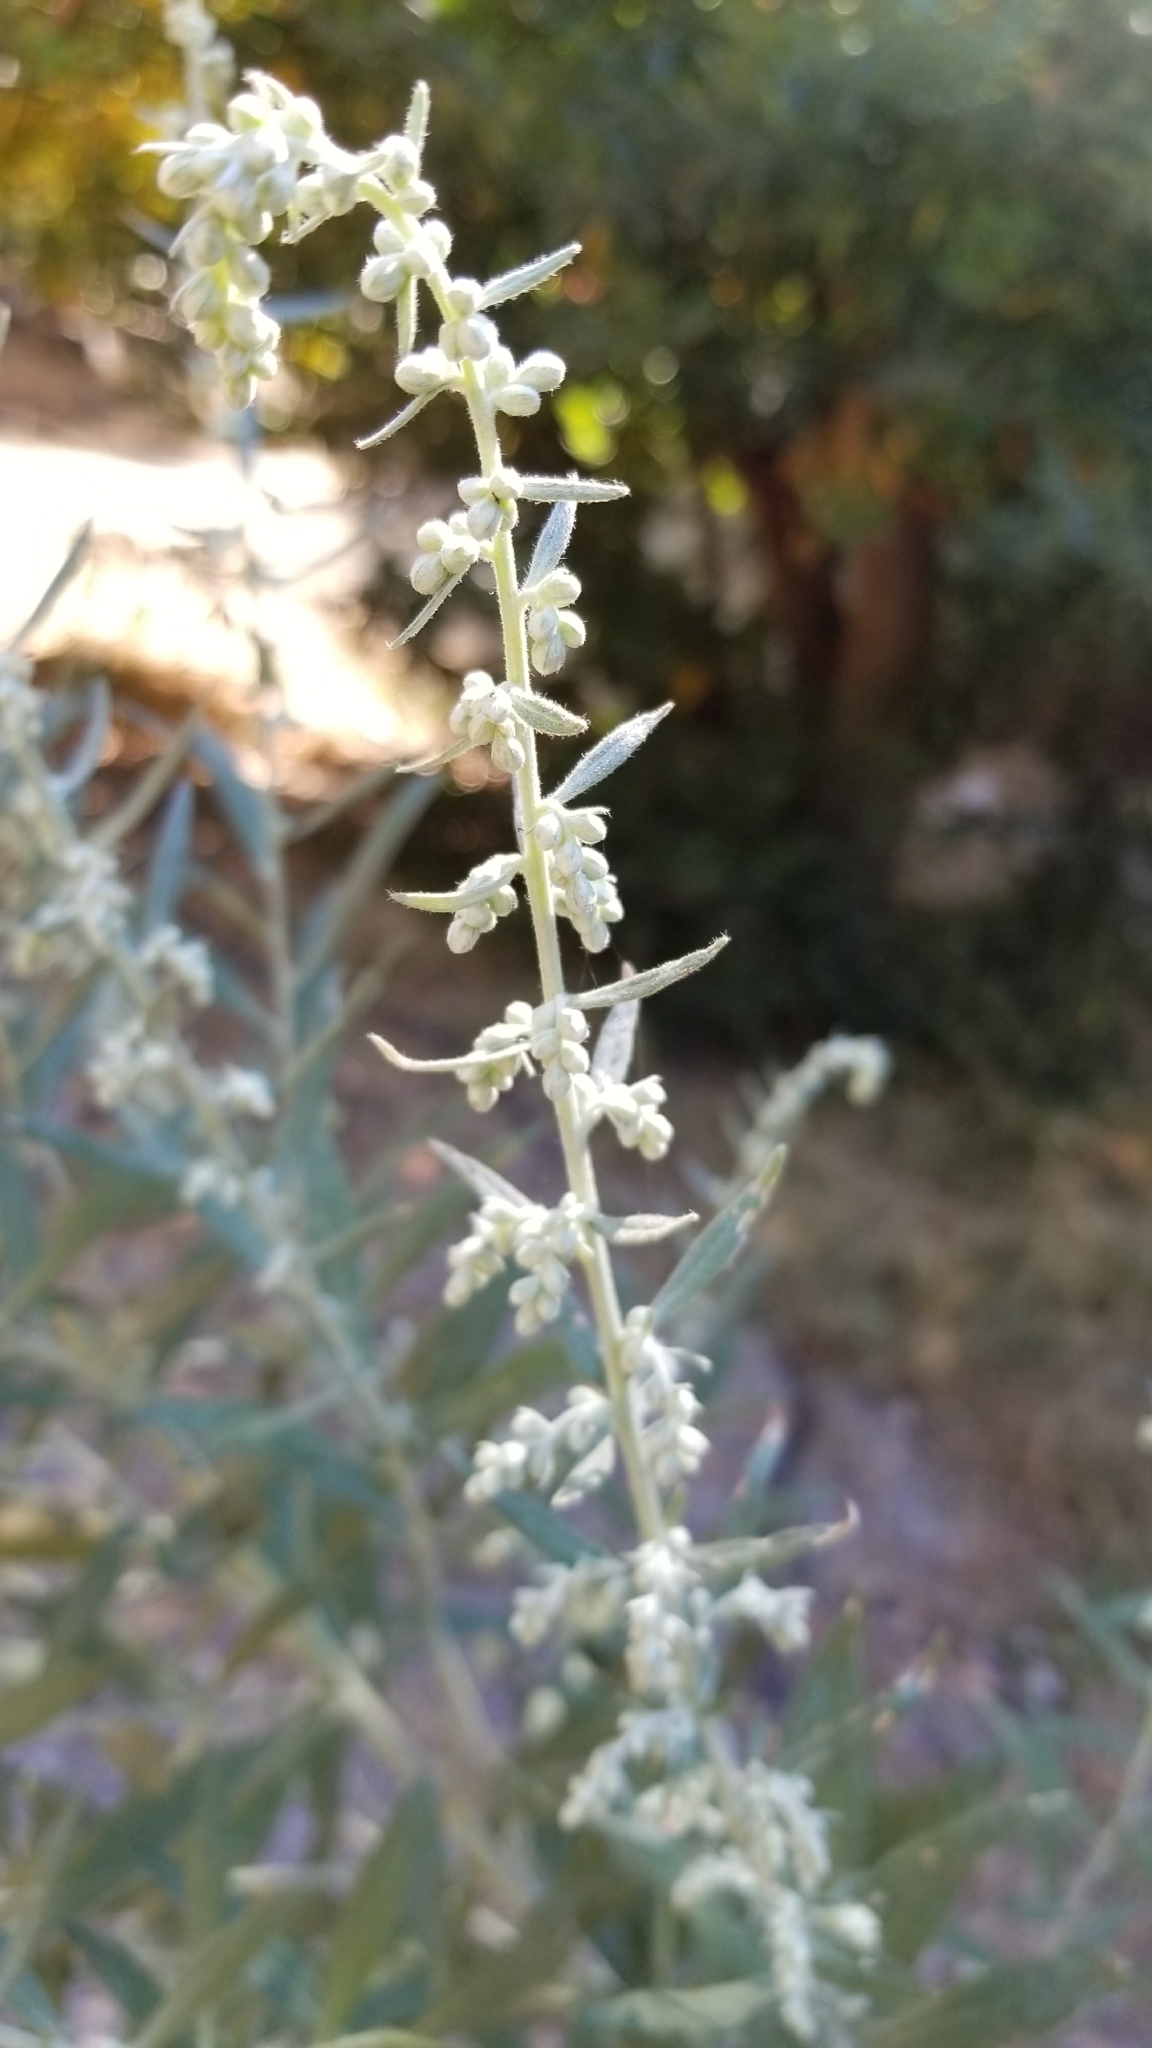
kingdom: Plantae
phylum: Tracheophyta
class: Magnoliopsida
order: Asterales
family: Asteraceae
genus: Artemisia
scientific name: Artemisia douglasiana
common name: Northwest mugwort
